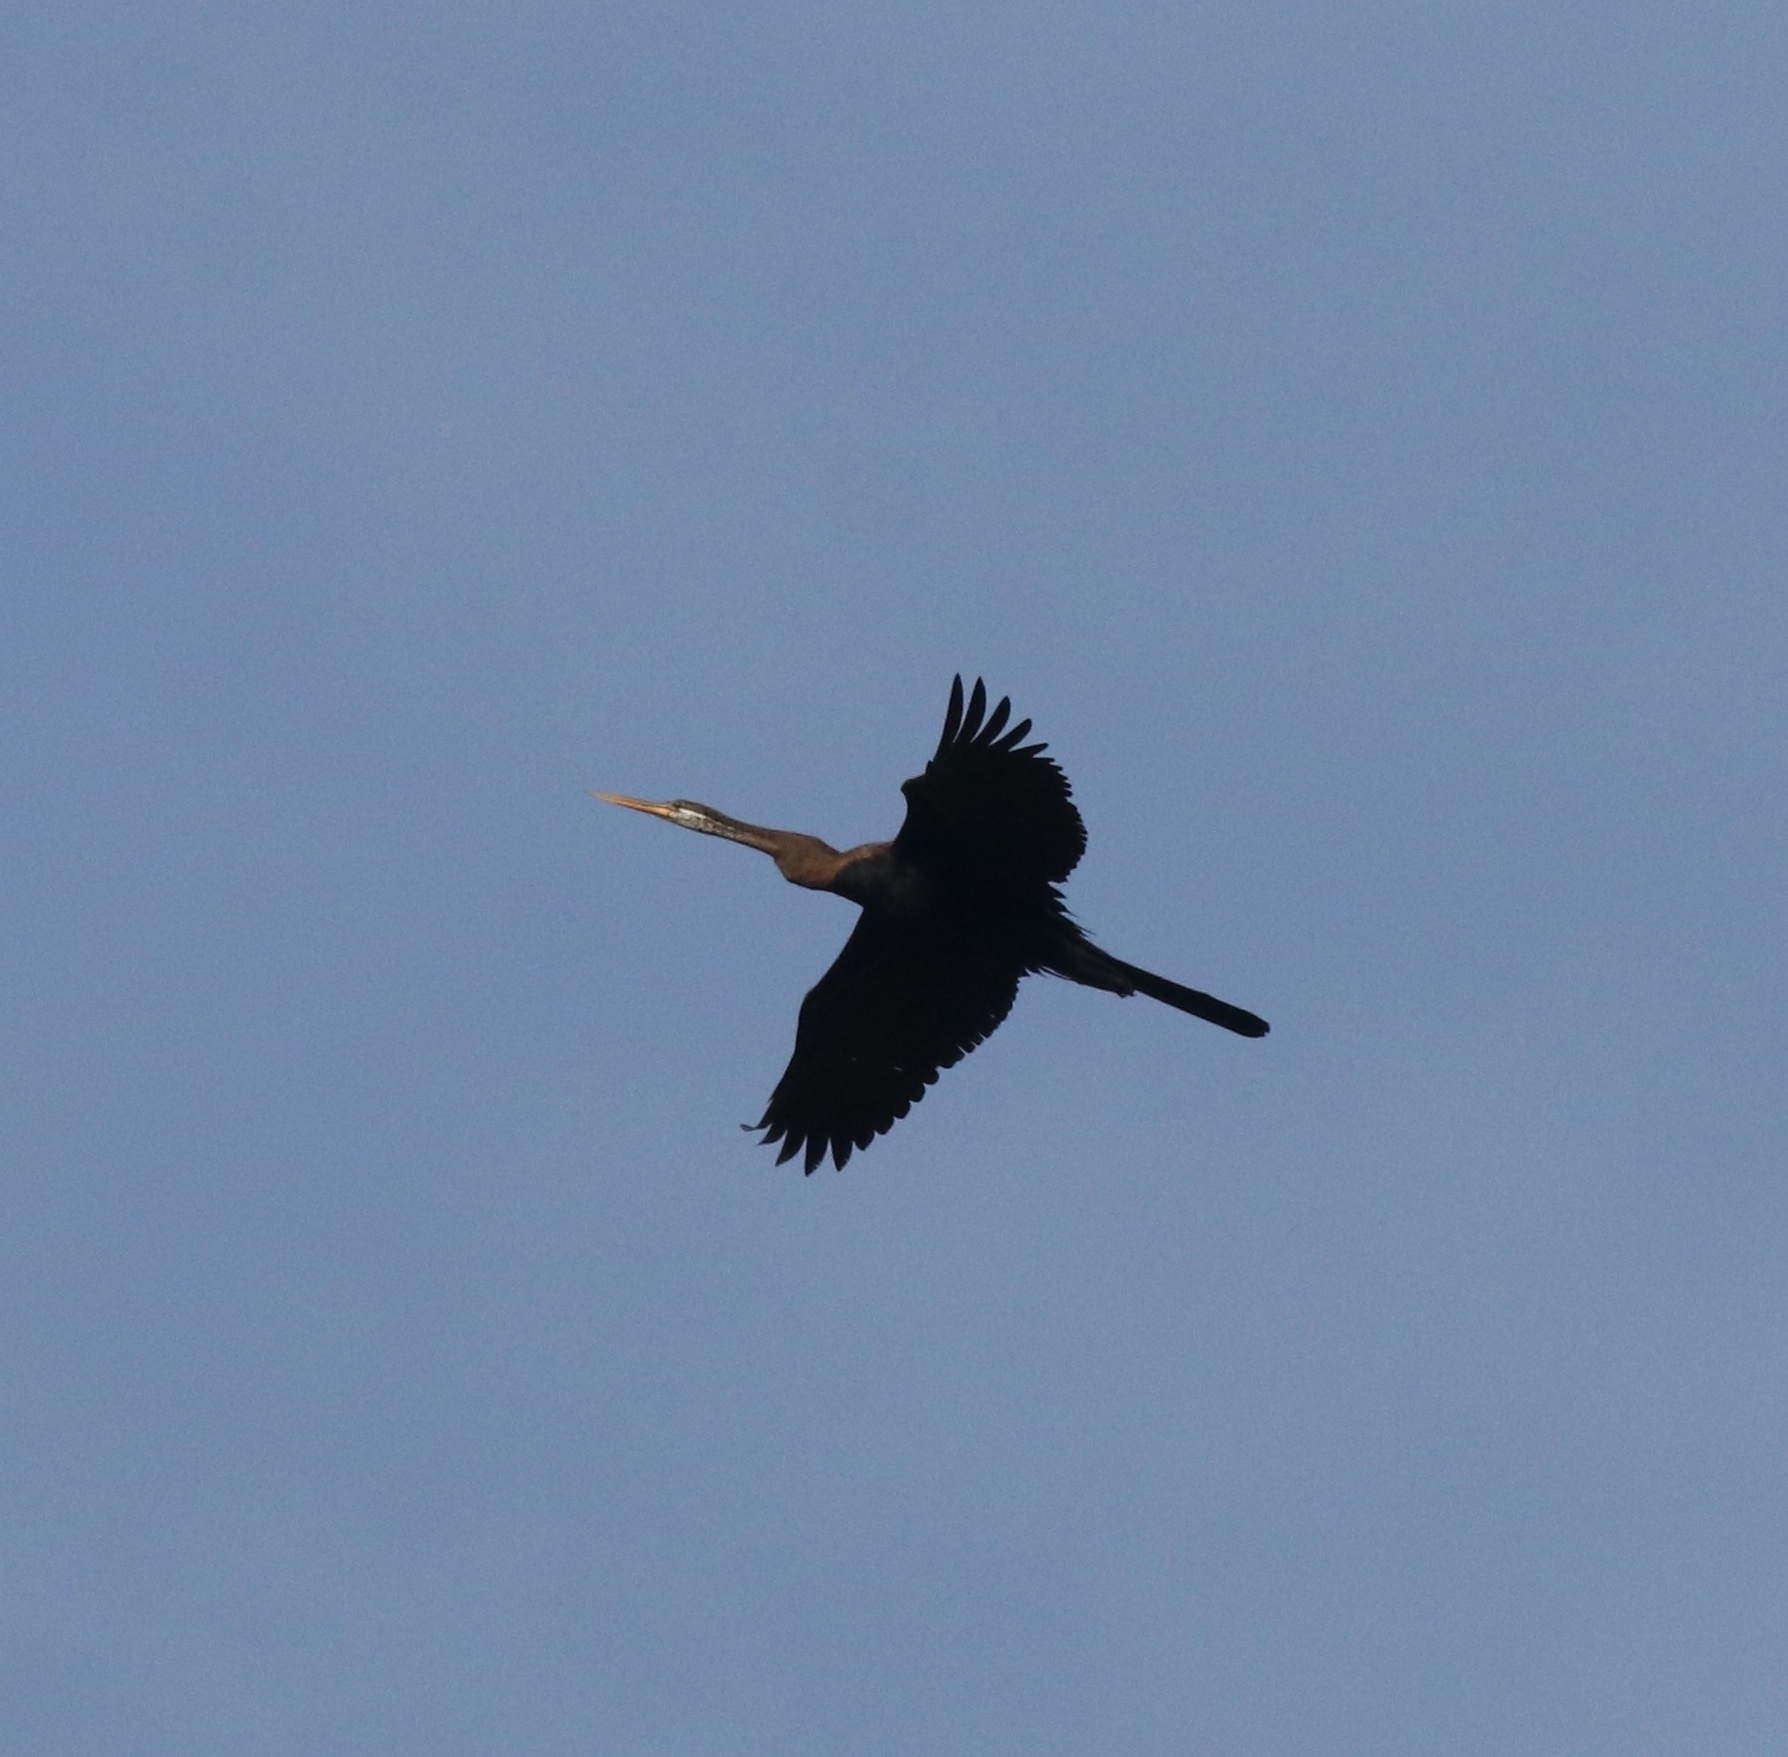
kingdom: Animalia
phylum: Chordata
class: Aves
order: Suliformes
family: Anhingidae
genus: Anhinga
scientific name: Anhinga melanogaster
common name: Oriental darter
